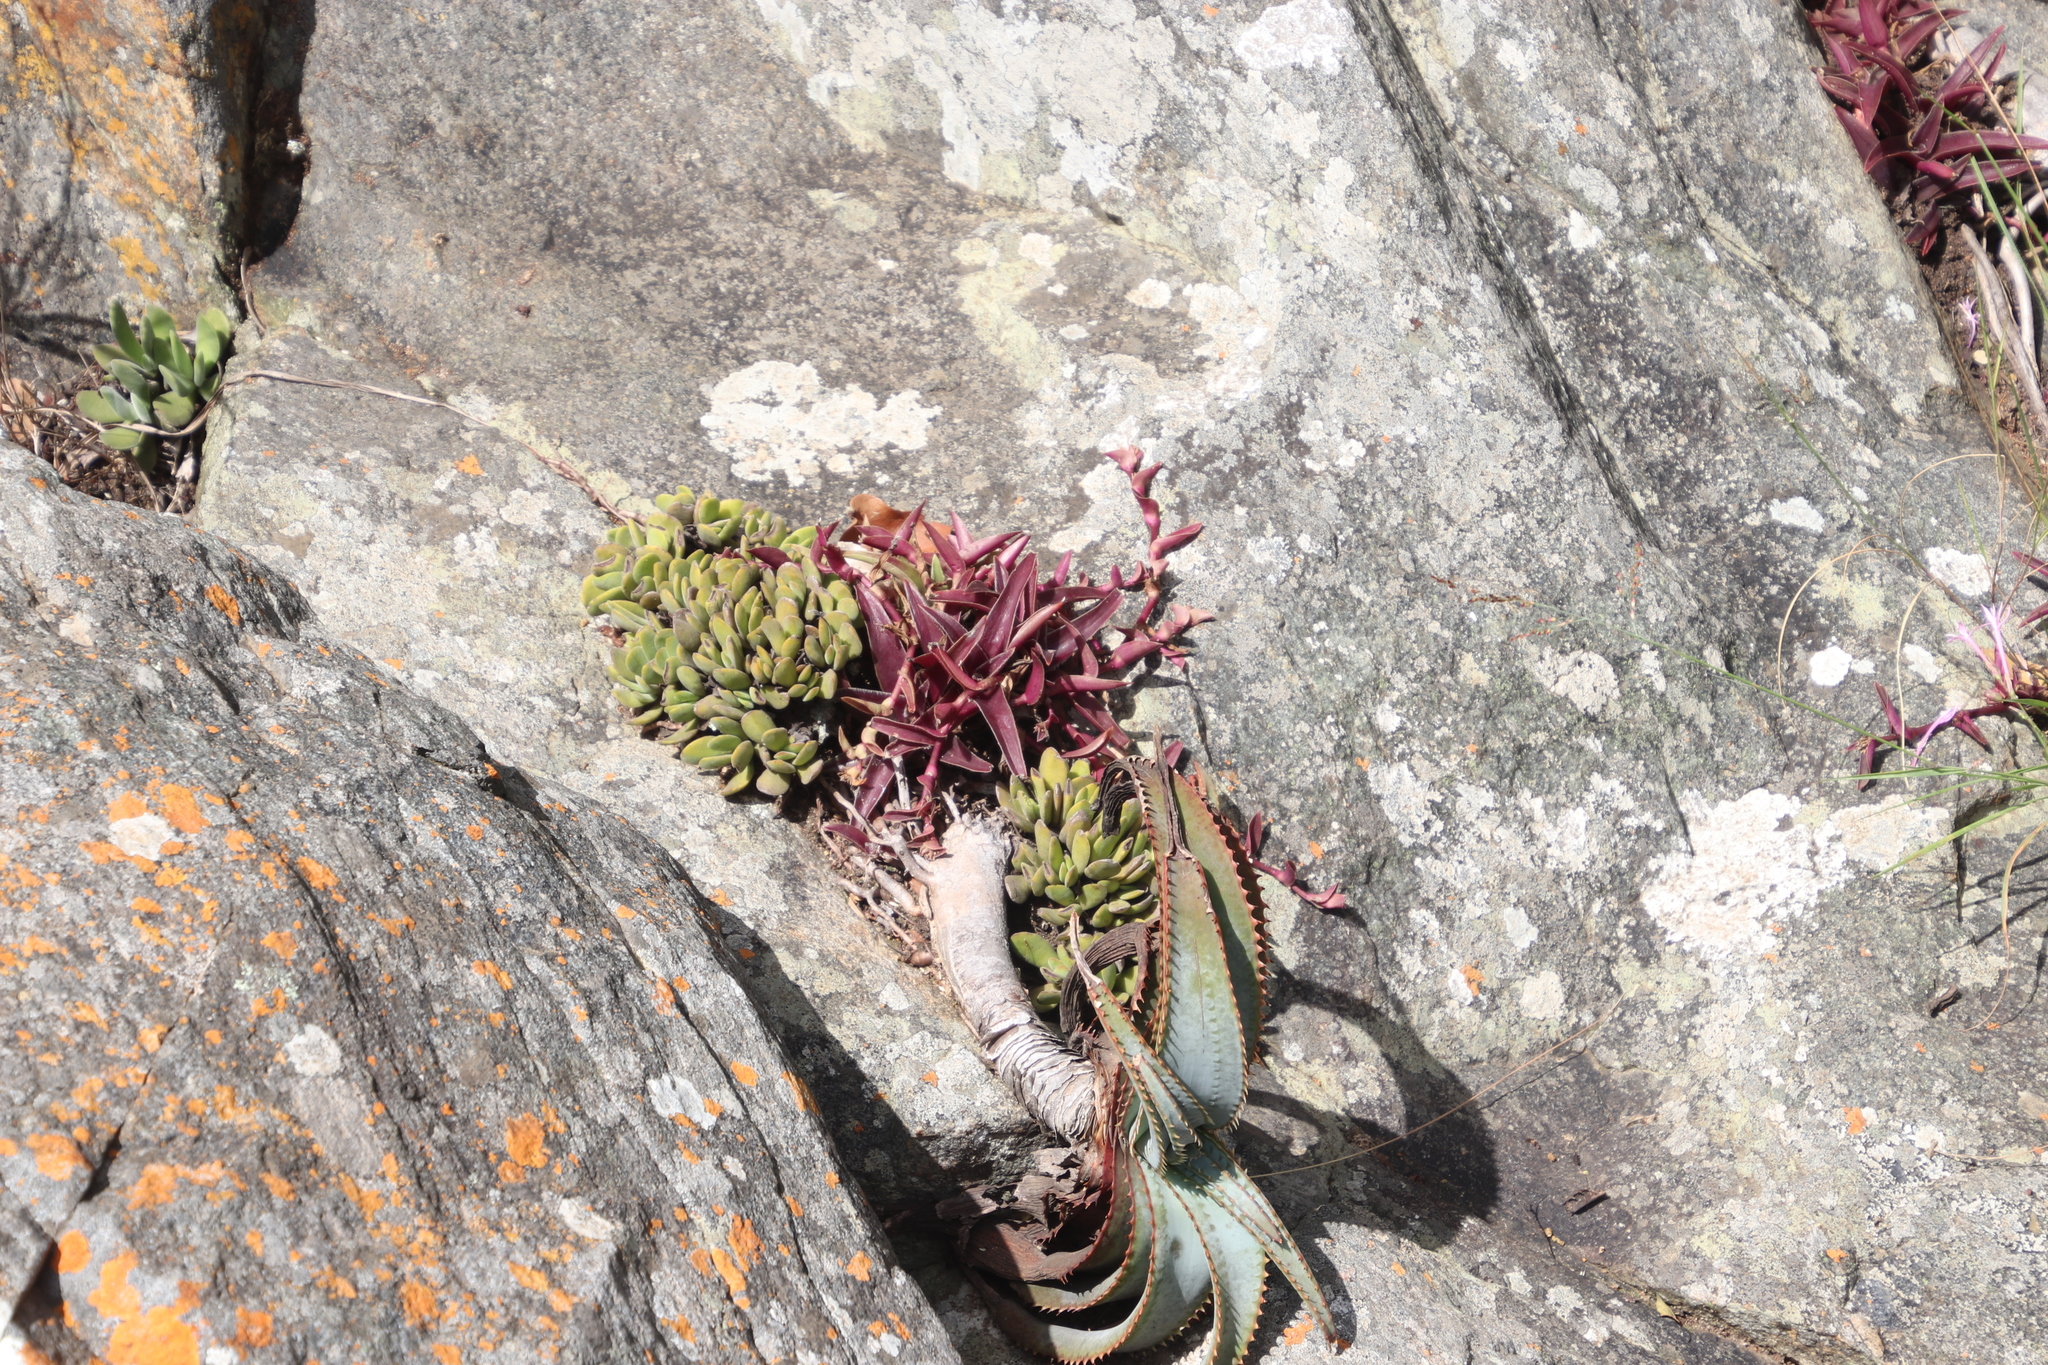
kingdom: Plantae
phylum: Tracheophyta
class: Liliopsida
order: Asparagales
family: Asphodelaceae
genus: Aloe
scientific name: Aloe suprafoliata
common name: Book aloe
